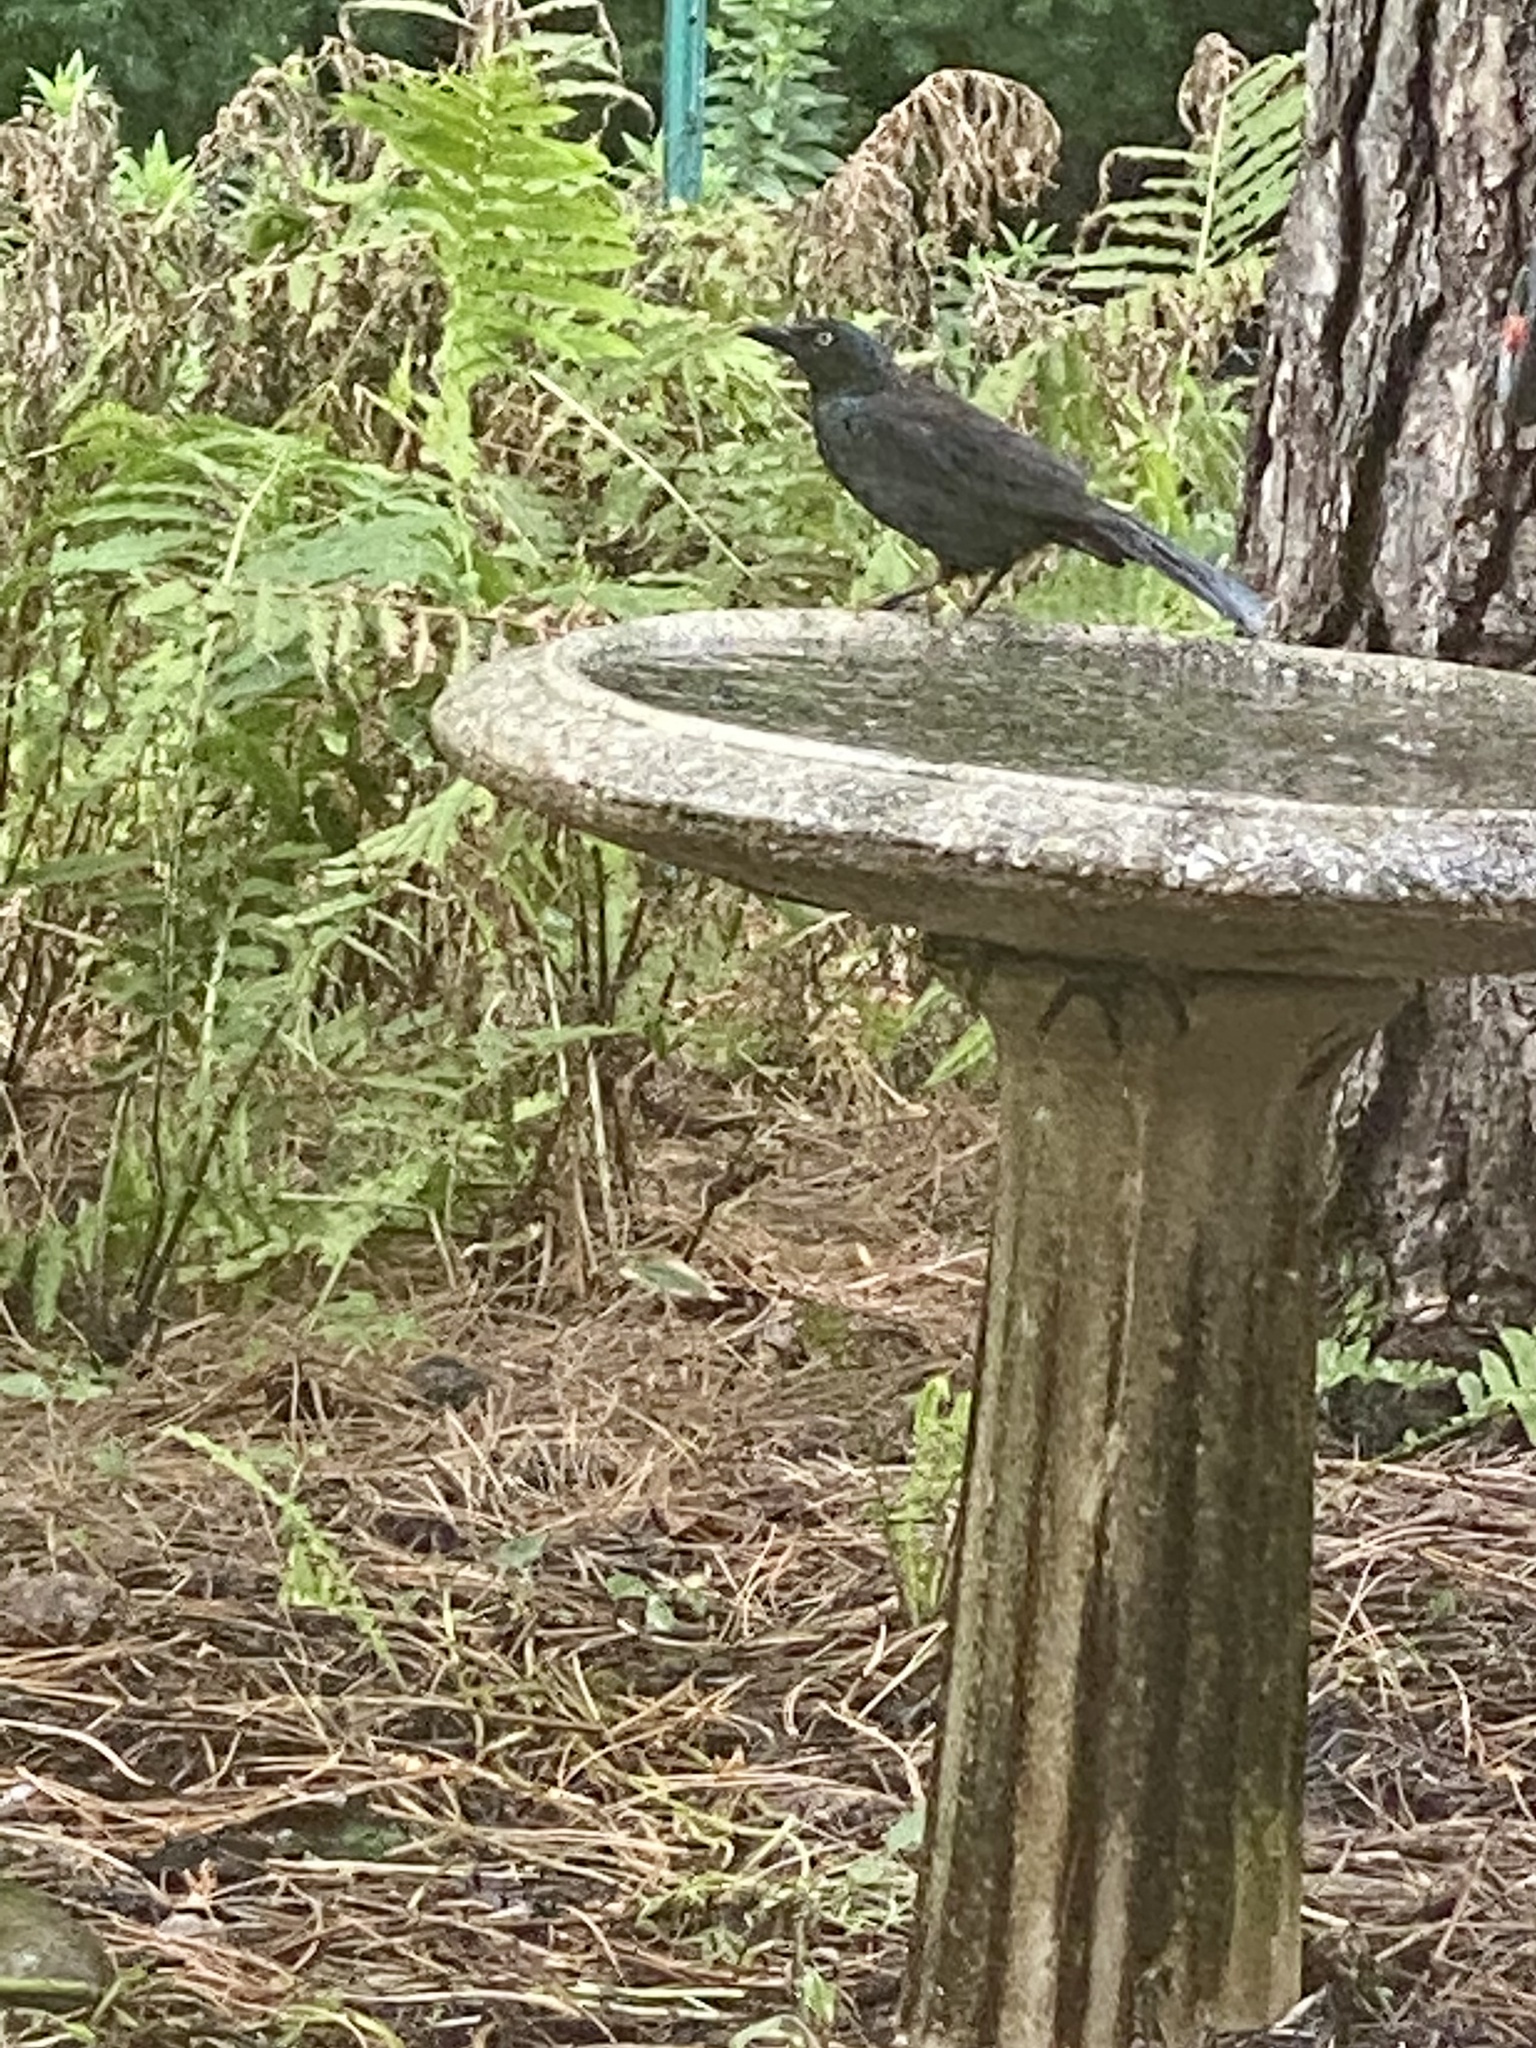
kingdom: Animalia
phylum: Chordata
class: Aves
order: Passeriformes
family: Icteridae
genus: Quiscalus
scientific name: Quiscalus quiscula
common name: Common grackle
